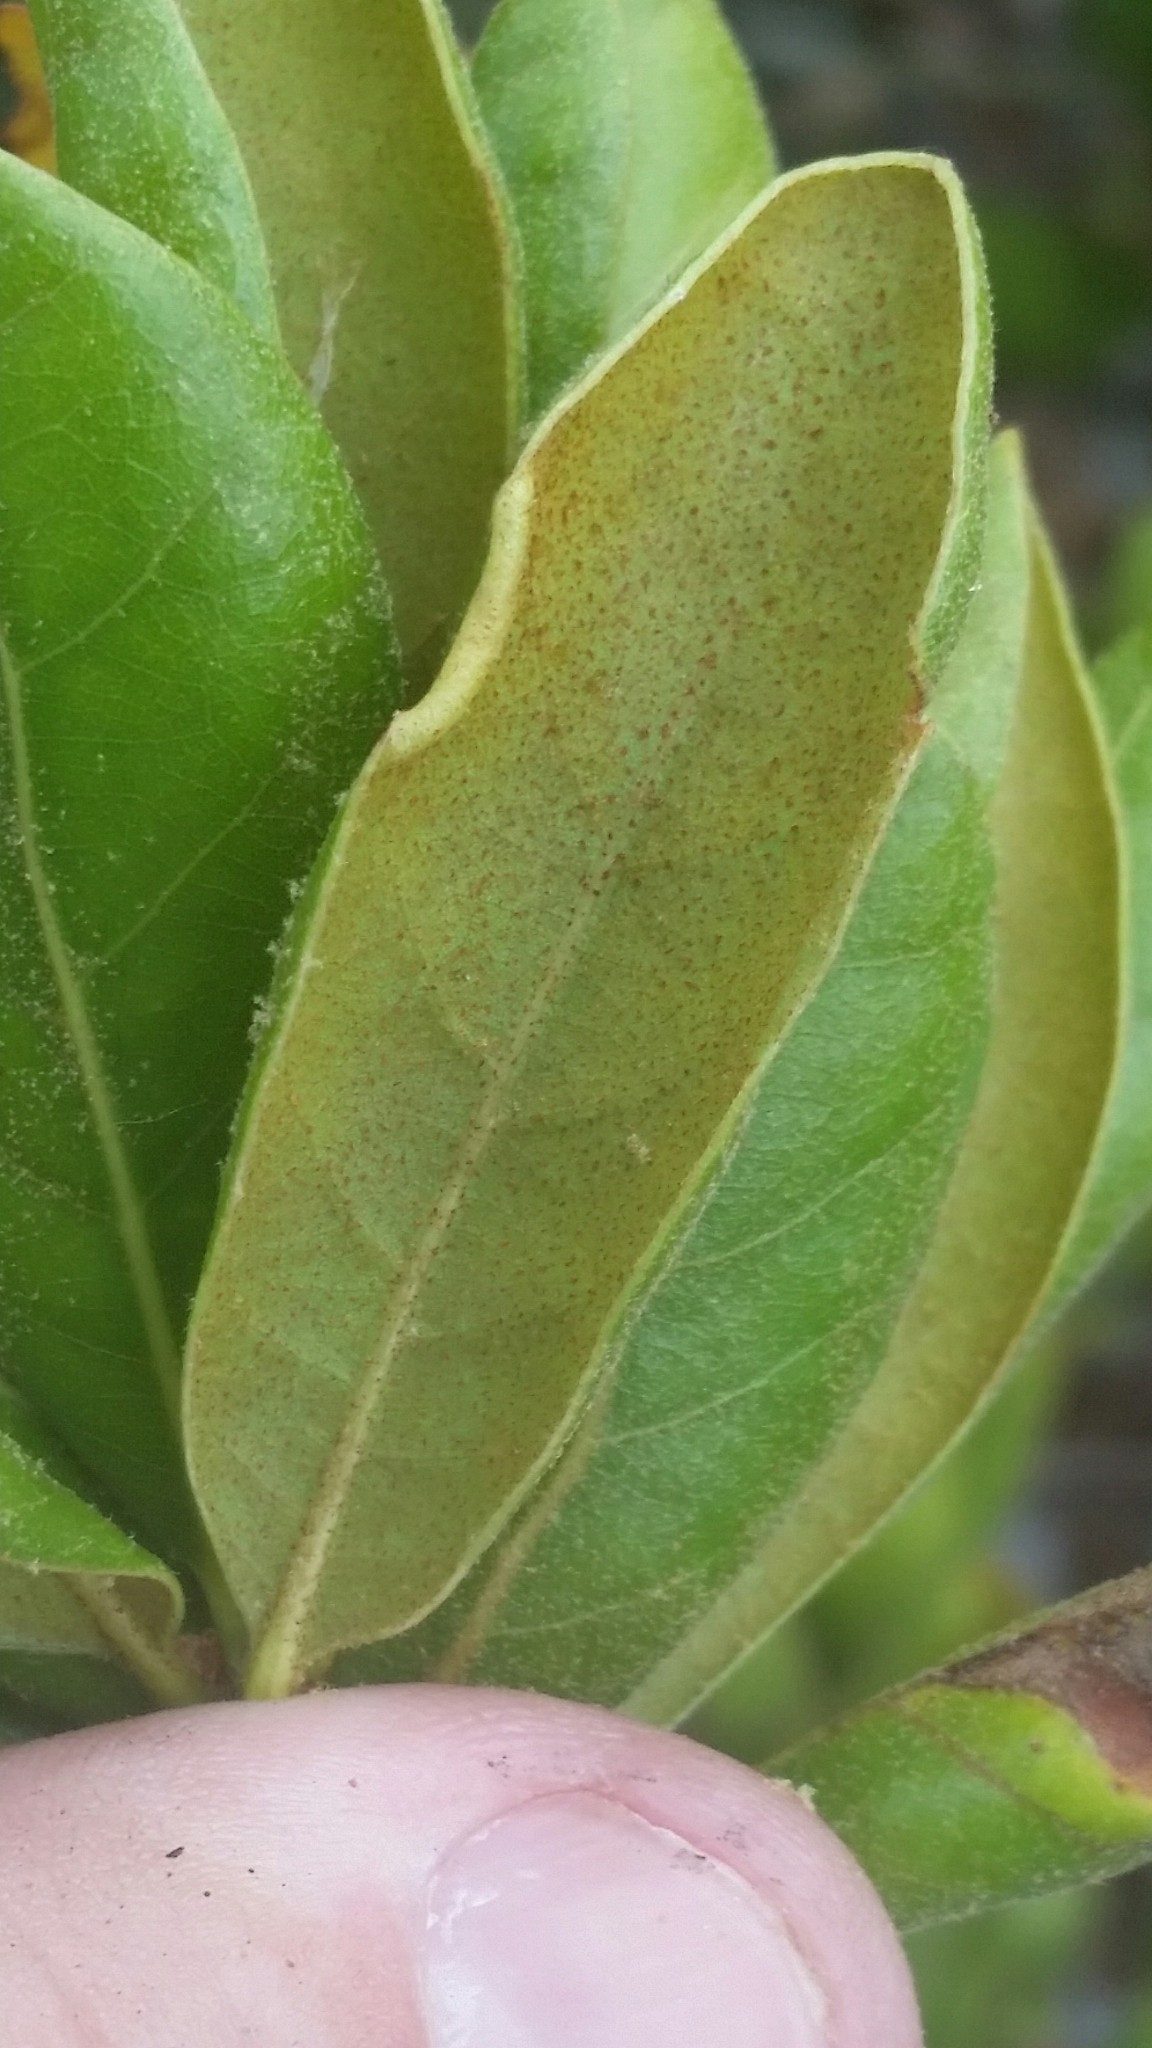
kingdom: Plantae
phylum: Tracheophyta
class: Magnoliopsida
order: Fagales
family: Fagaceae
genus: Quercus
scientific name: Quercus inopina
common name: Sandhill oak
